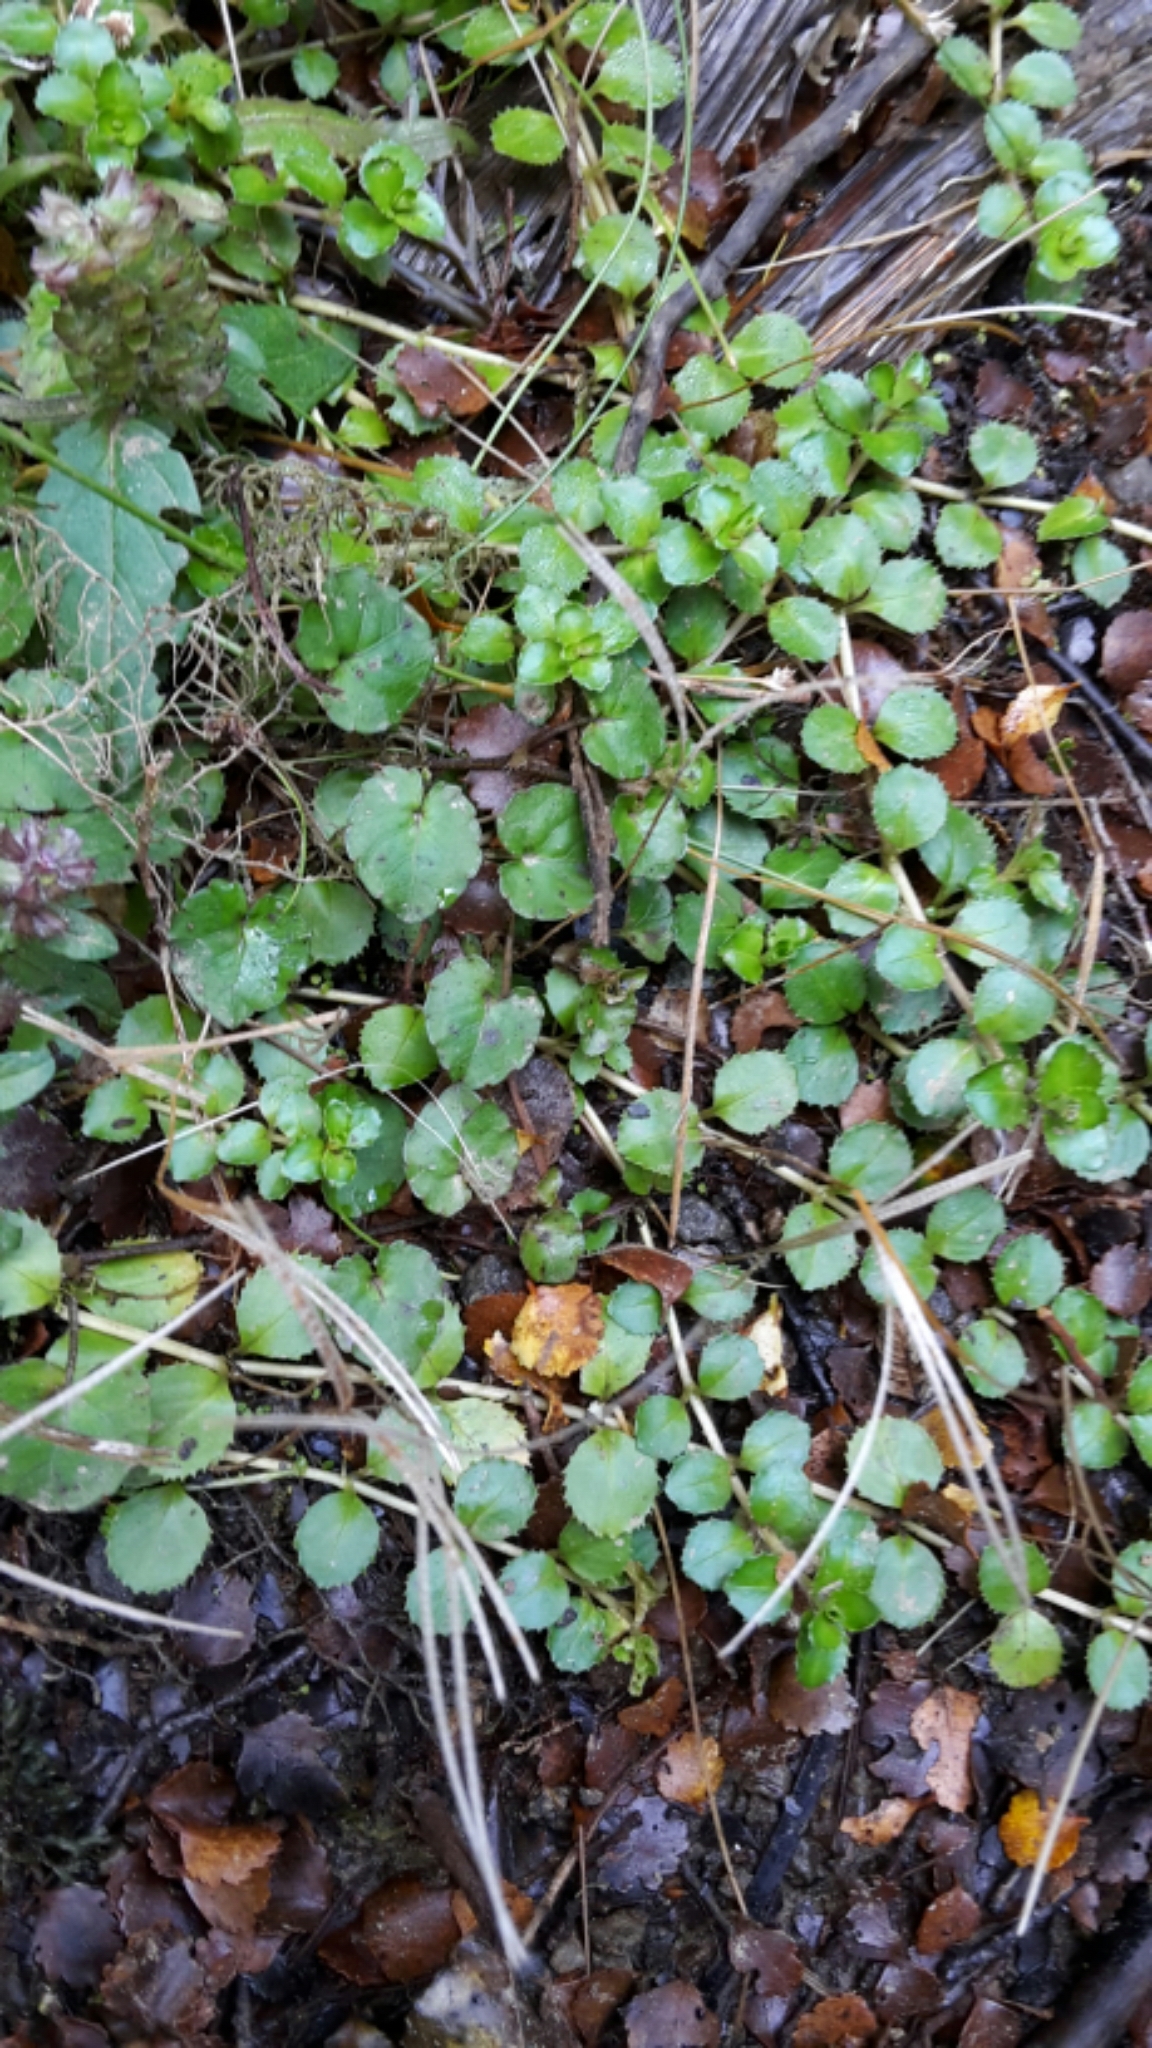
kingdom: Plantae
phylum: Tracheophyta
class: Magnoliopsida
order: Myrtales
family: Onagraceae
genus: Epilobium
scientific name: Epilobium pedunculare
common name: Rockery willowherb
